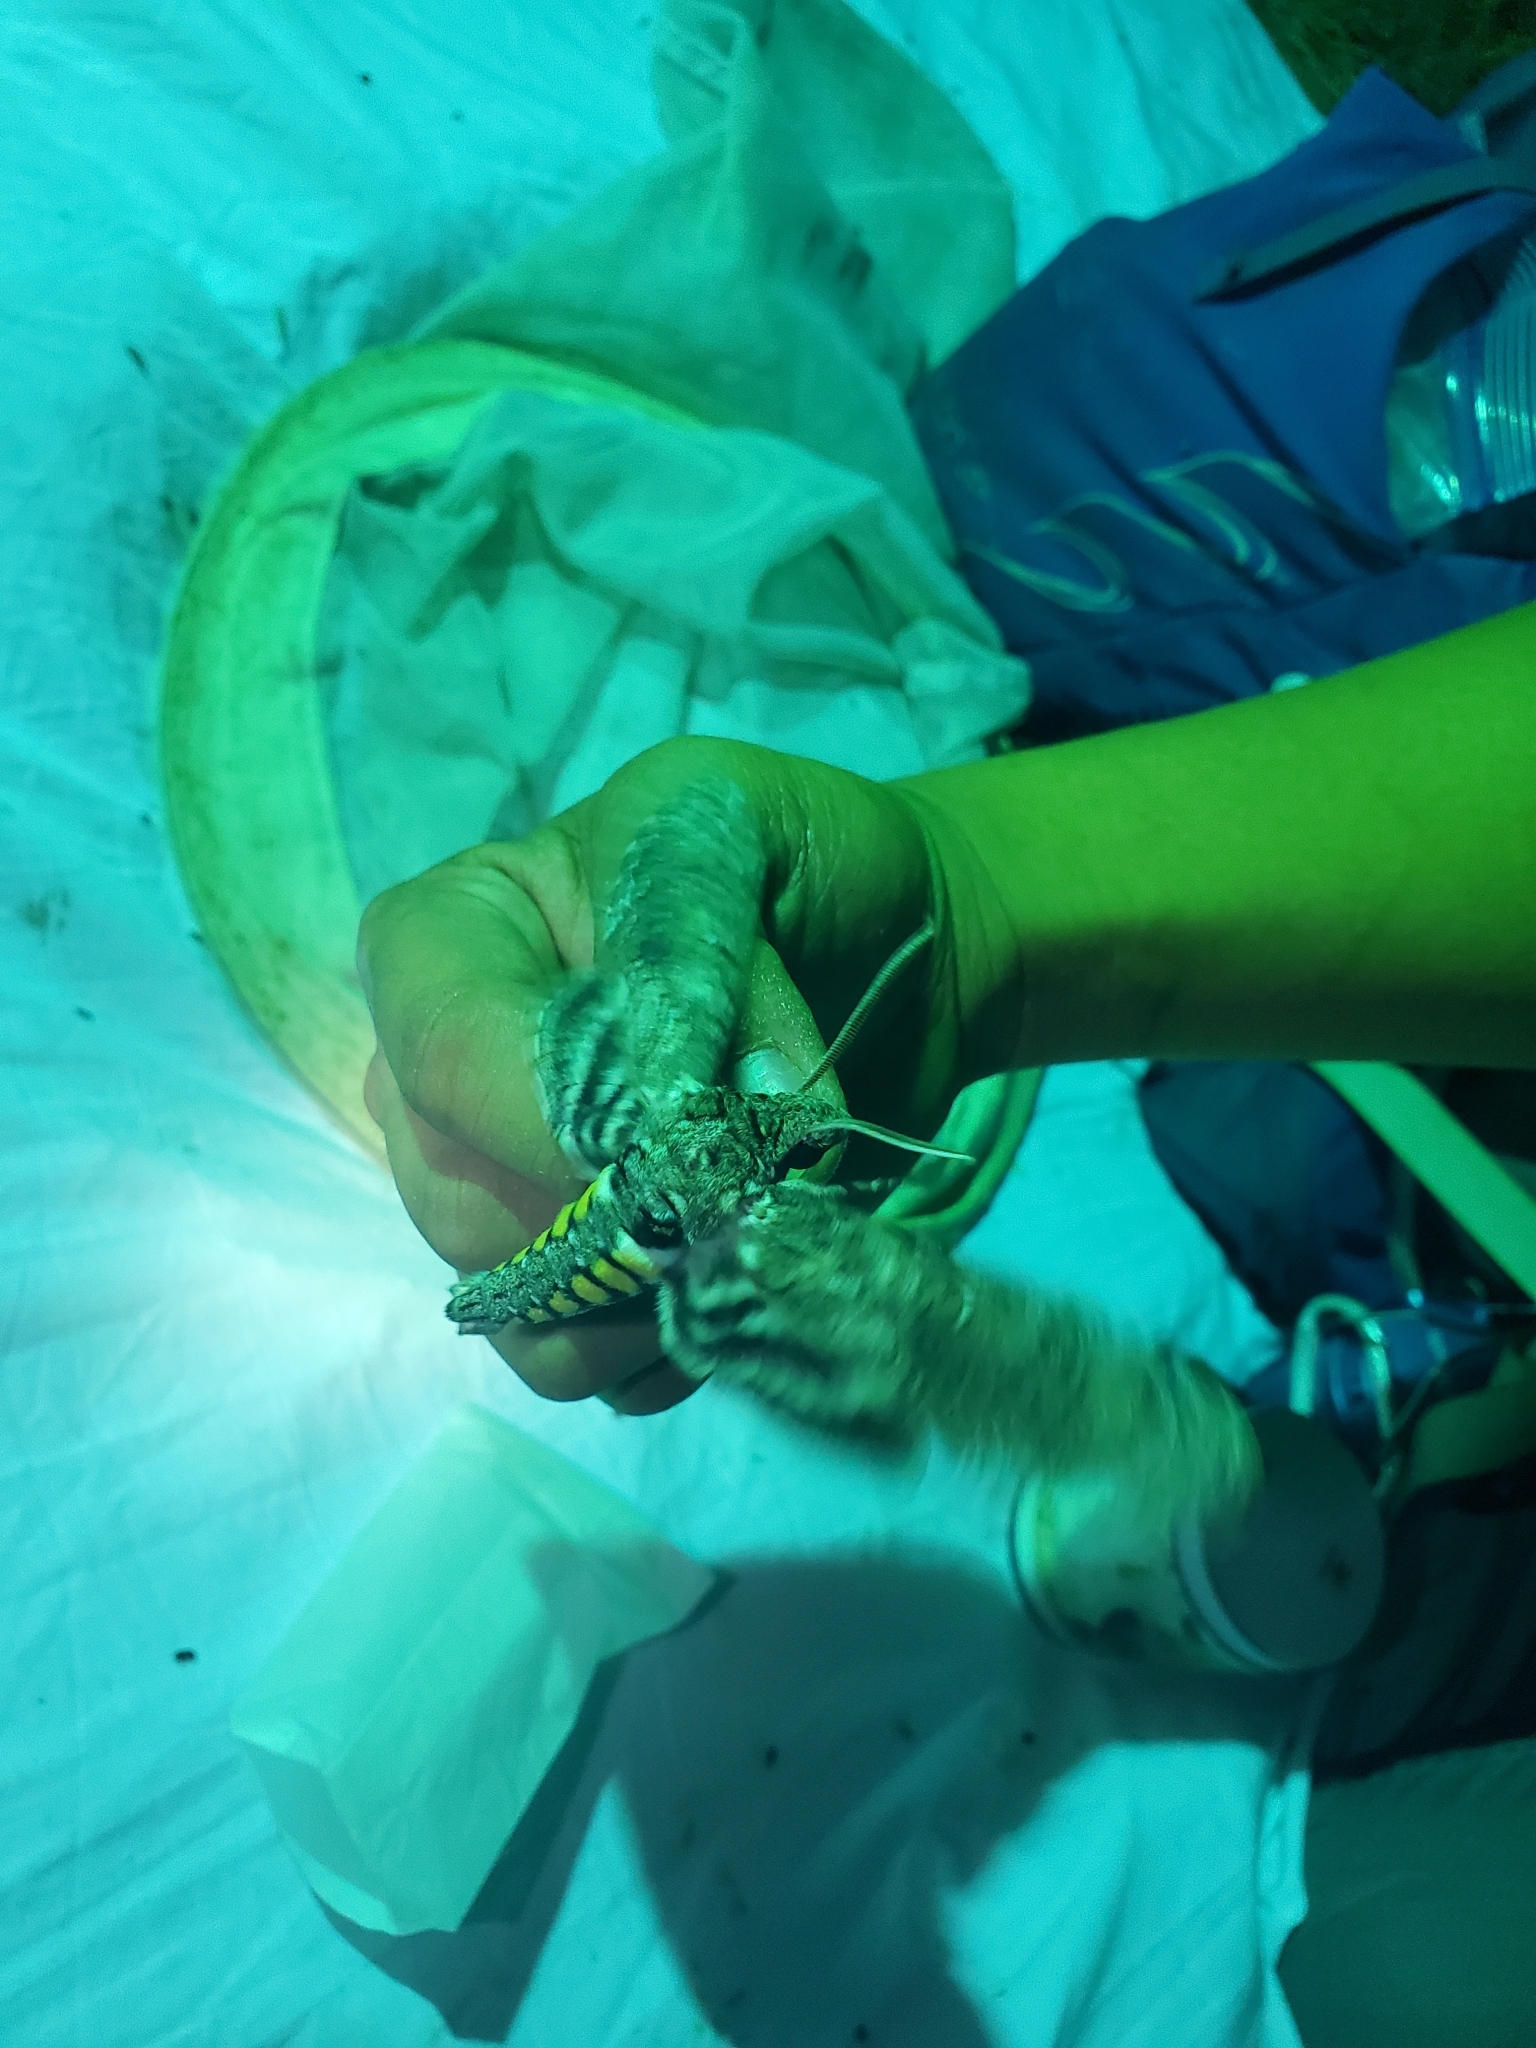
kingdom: Animalia
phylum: Arthropoda
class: Insecta
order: Lepidoptera
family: Sphingidae
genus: Manduca
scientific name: Manduca sexta
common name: Carolina sphinx
